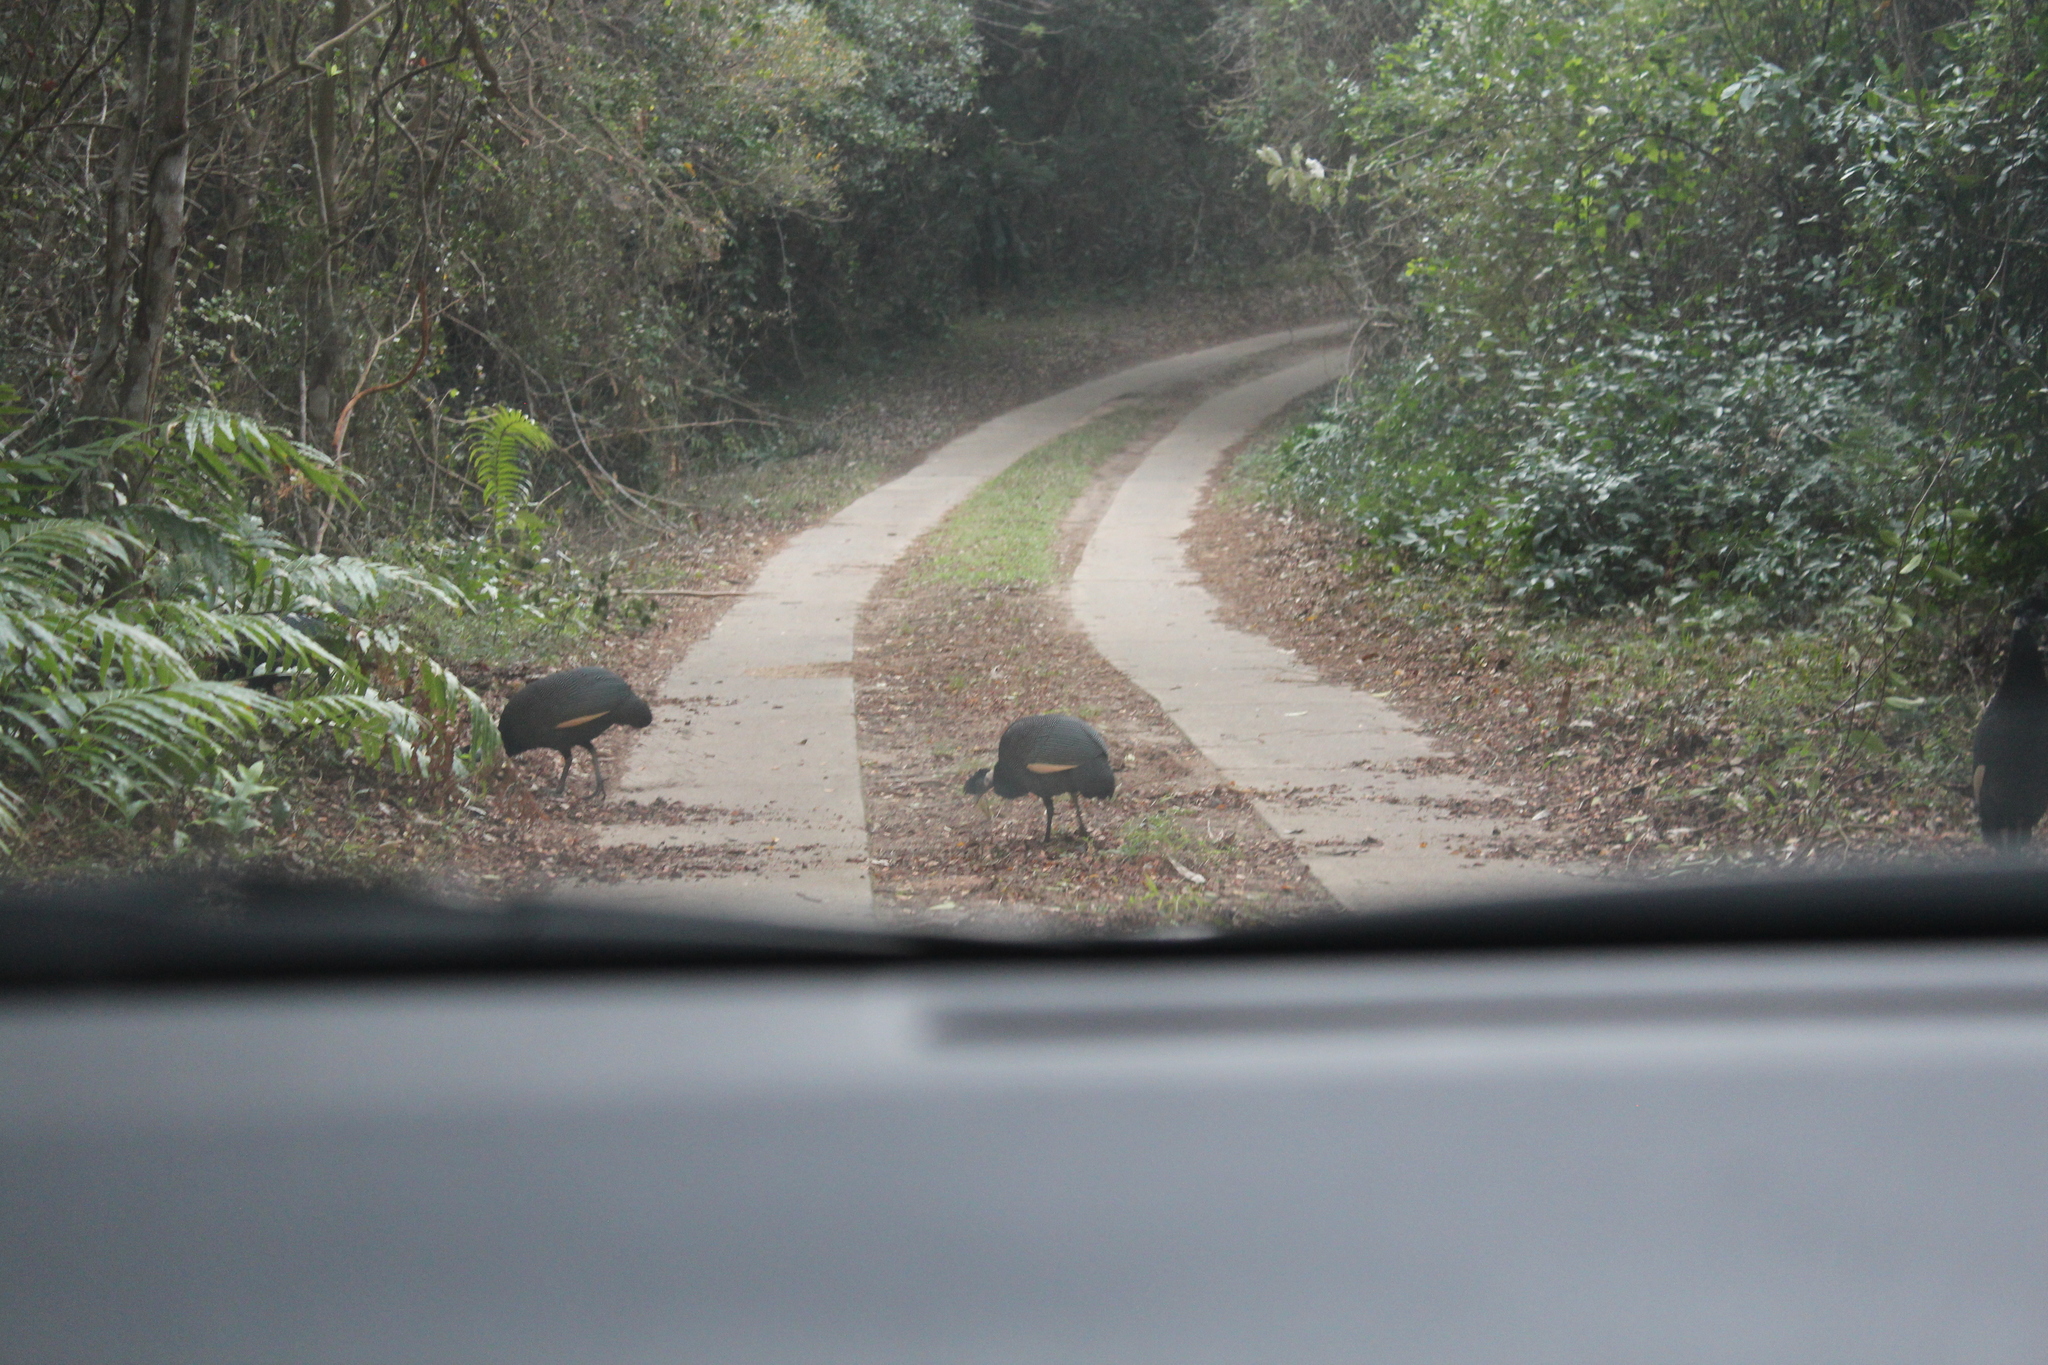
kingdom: Animalia
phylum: Chordata
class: Aves
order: Galliformes
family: Numididae
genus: Guttera
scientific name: Guttera pucherani
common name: Crested guineafowl
